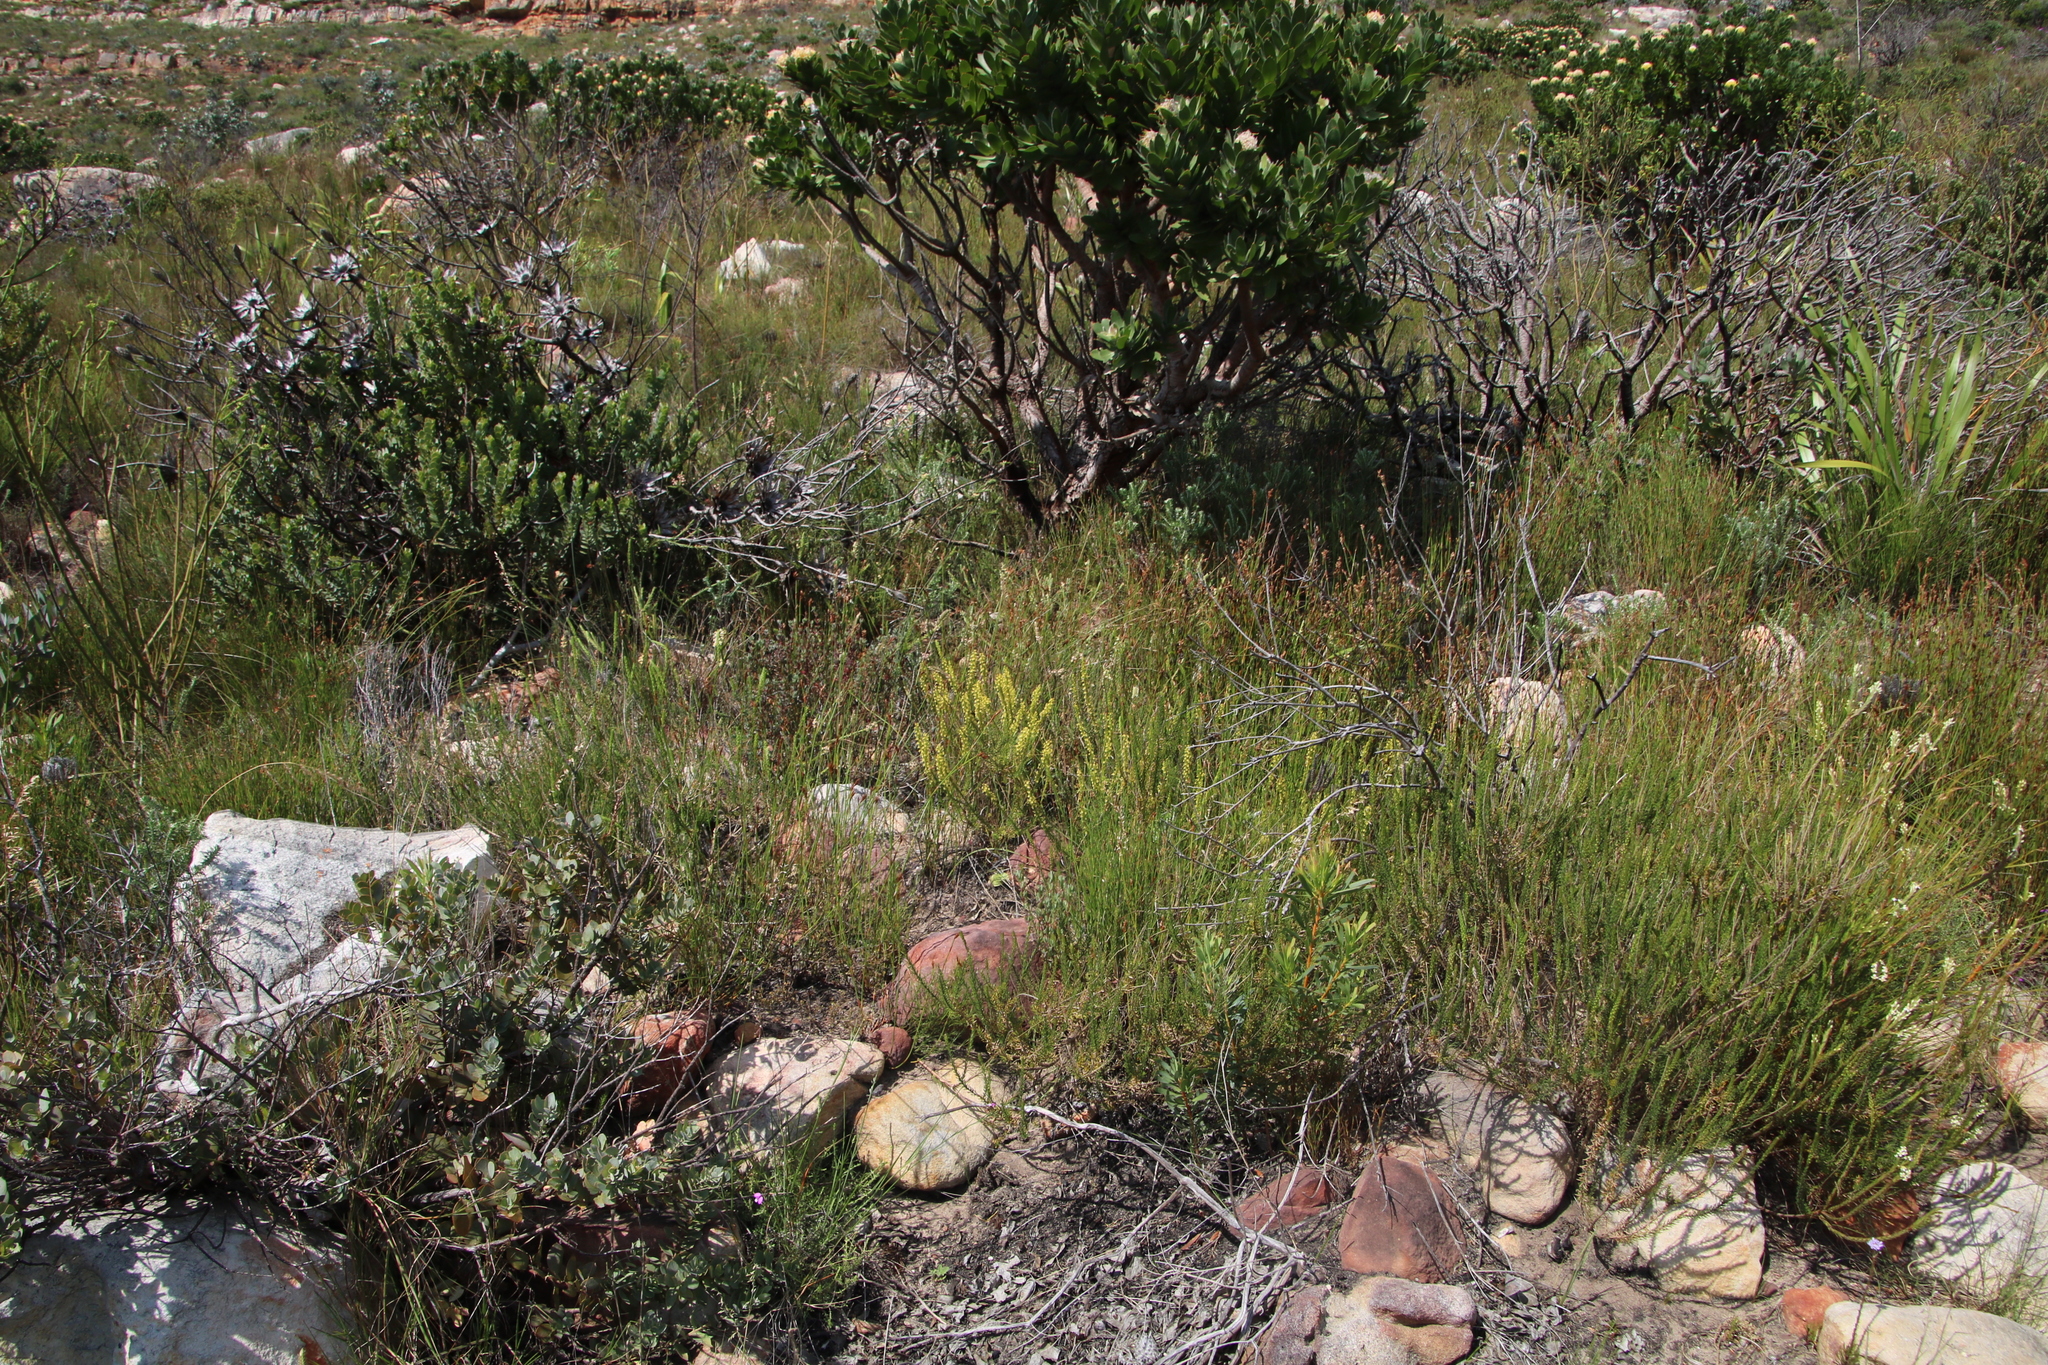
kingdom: Plantae
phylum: Tracheophyta
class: Magnoliopsida
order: Lamiales
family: Scrophulariaceae
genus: Microdon
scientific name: Microdon dubius
